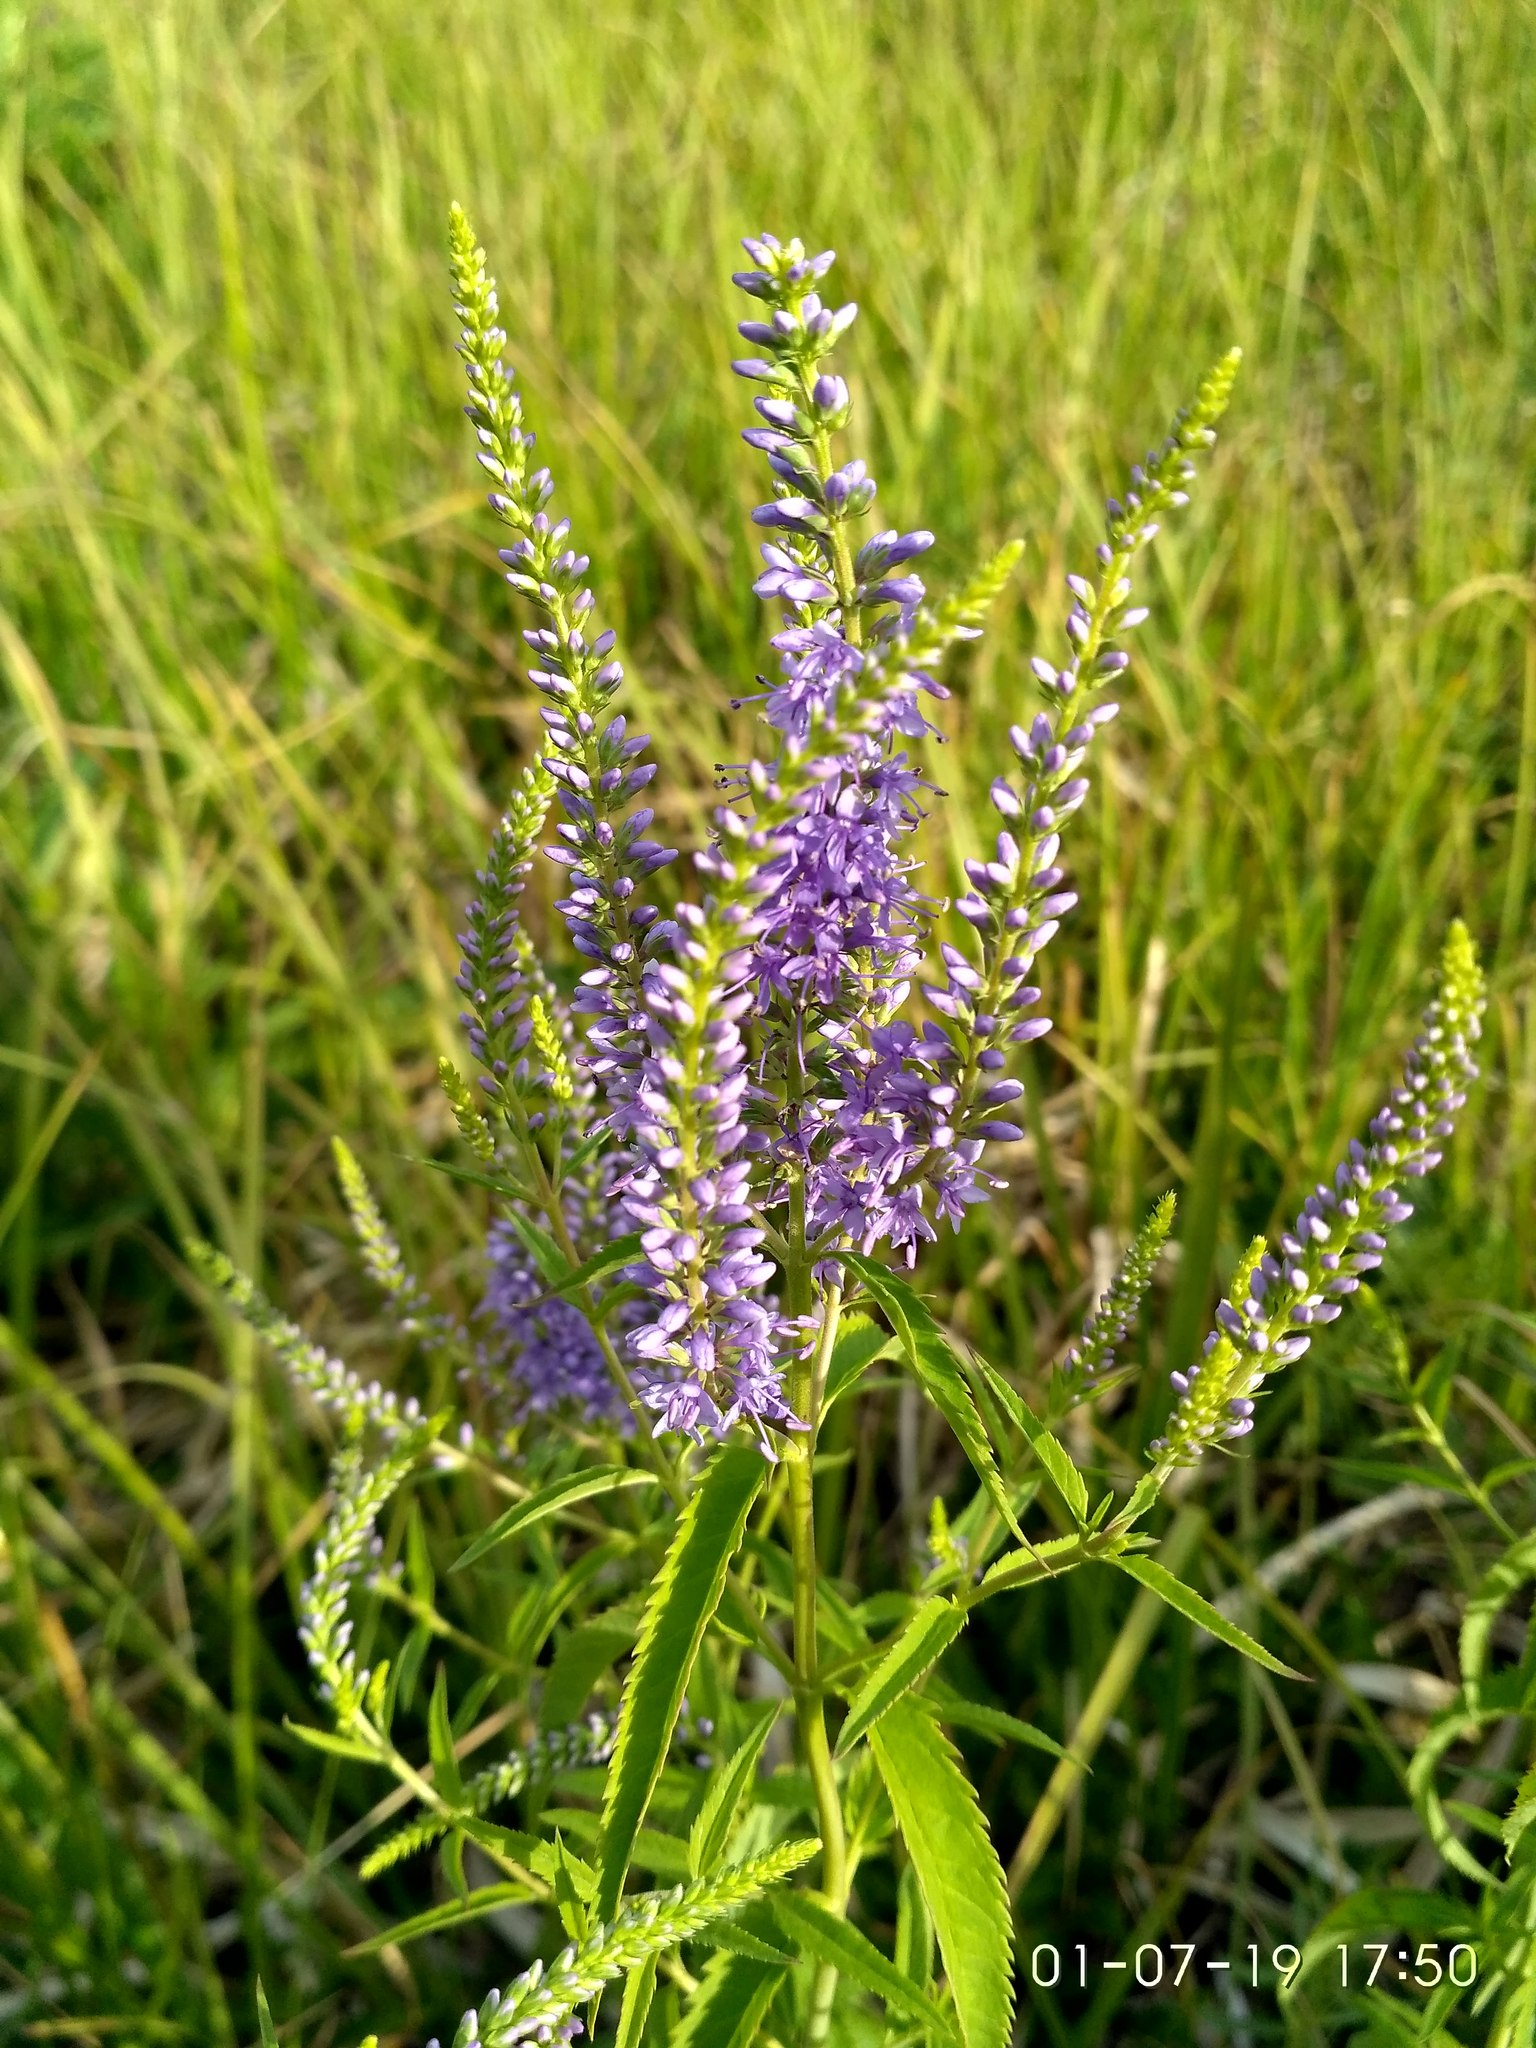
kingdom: Plantae
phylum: Tracheophyta
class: Magnoliopsida
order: Lamiales
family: Plantaginaceae
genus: Veronica
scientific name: Veronica longifolia
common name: Garden speedwell
